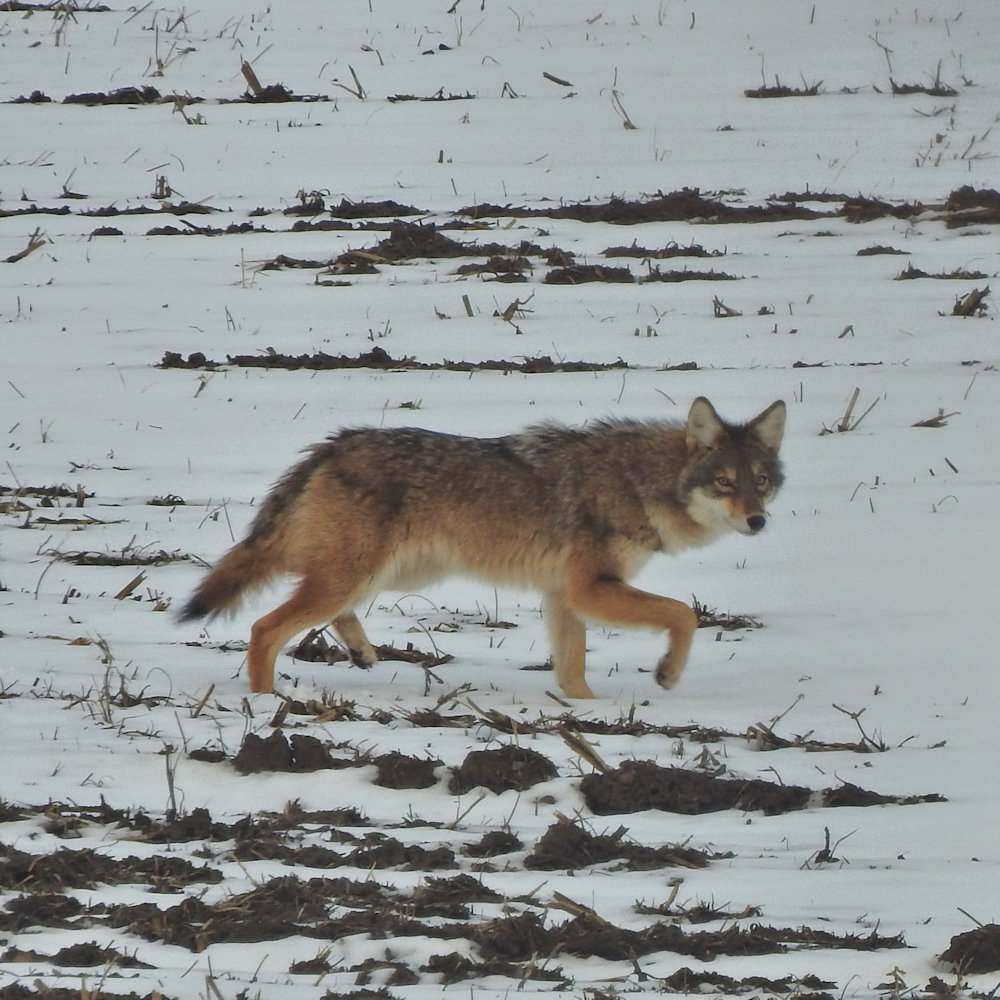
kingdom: Animalia
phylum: Chordata
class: Mammalia
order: Carnivora
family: Canidae
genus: Canis
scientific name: Canis latrans
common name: Coyote
